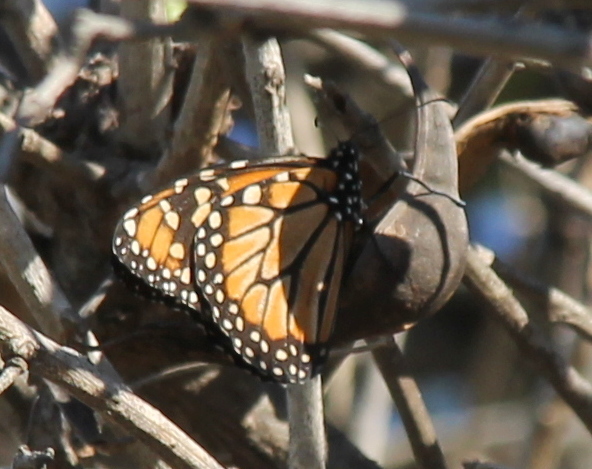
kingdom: Animalia
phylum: Arthropoda
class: Insecta
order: Lepidoptera
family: Nymphalidae
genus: Danaus
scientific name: Danaus erippus
